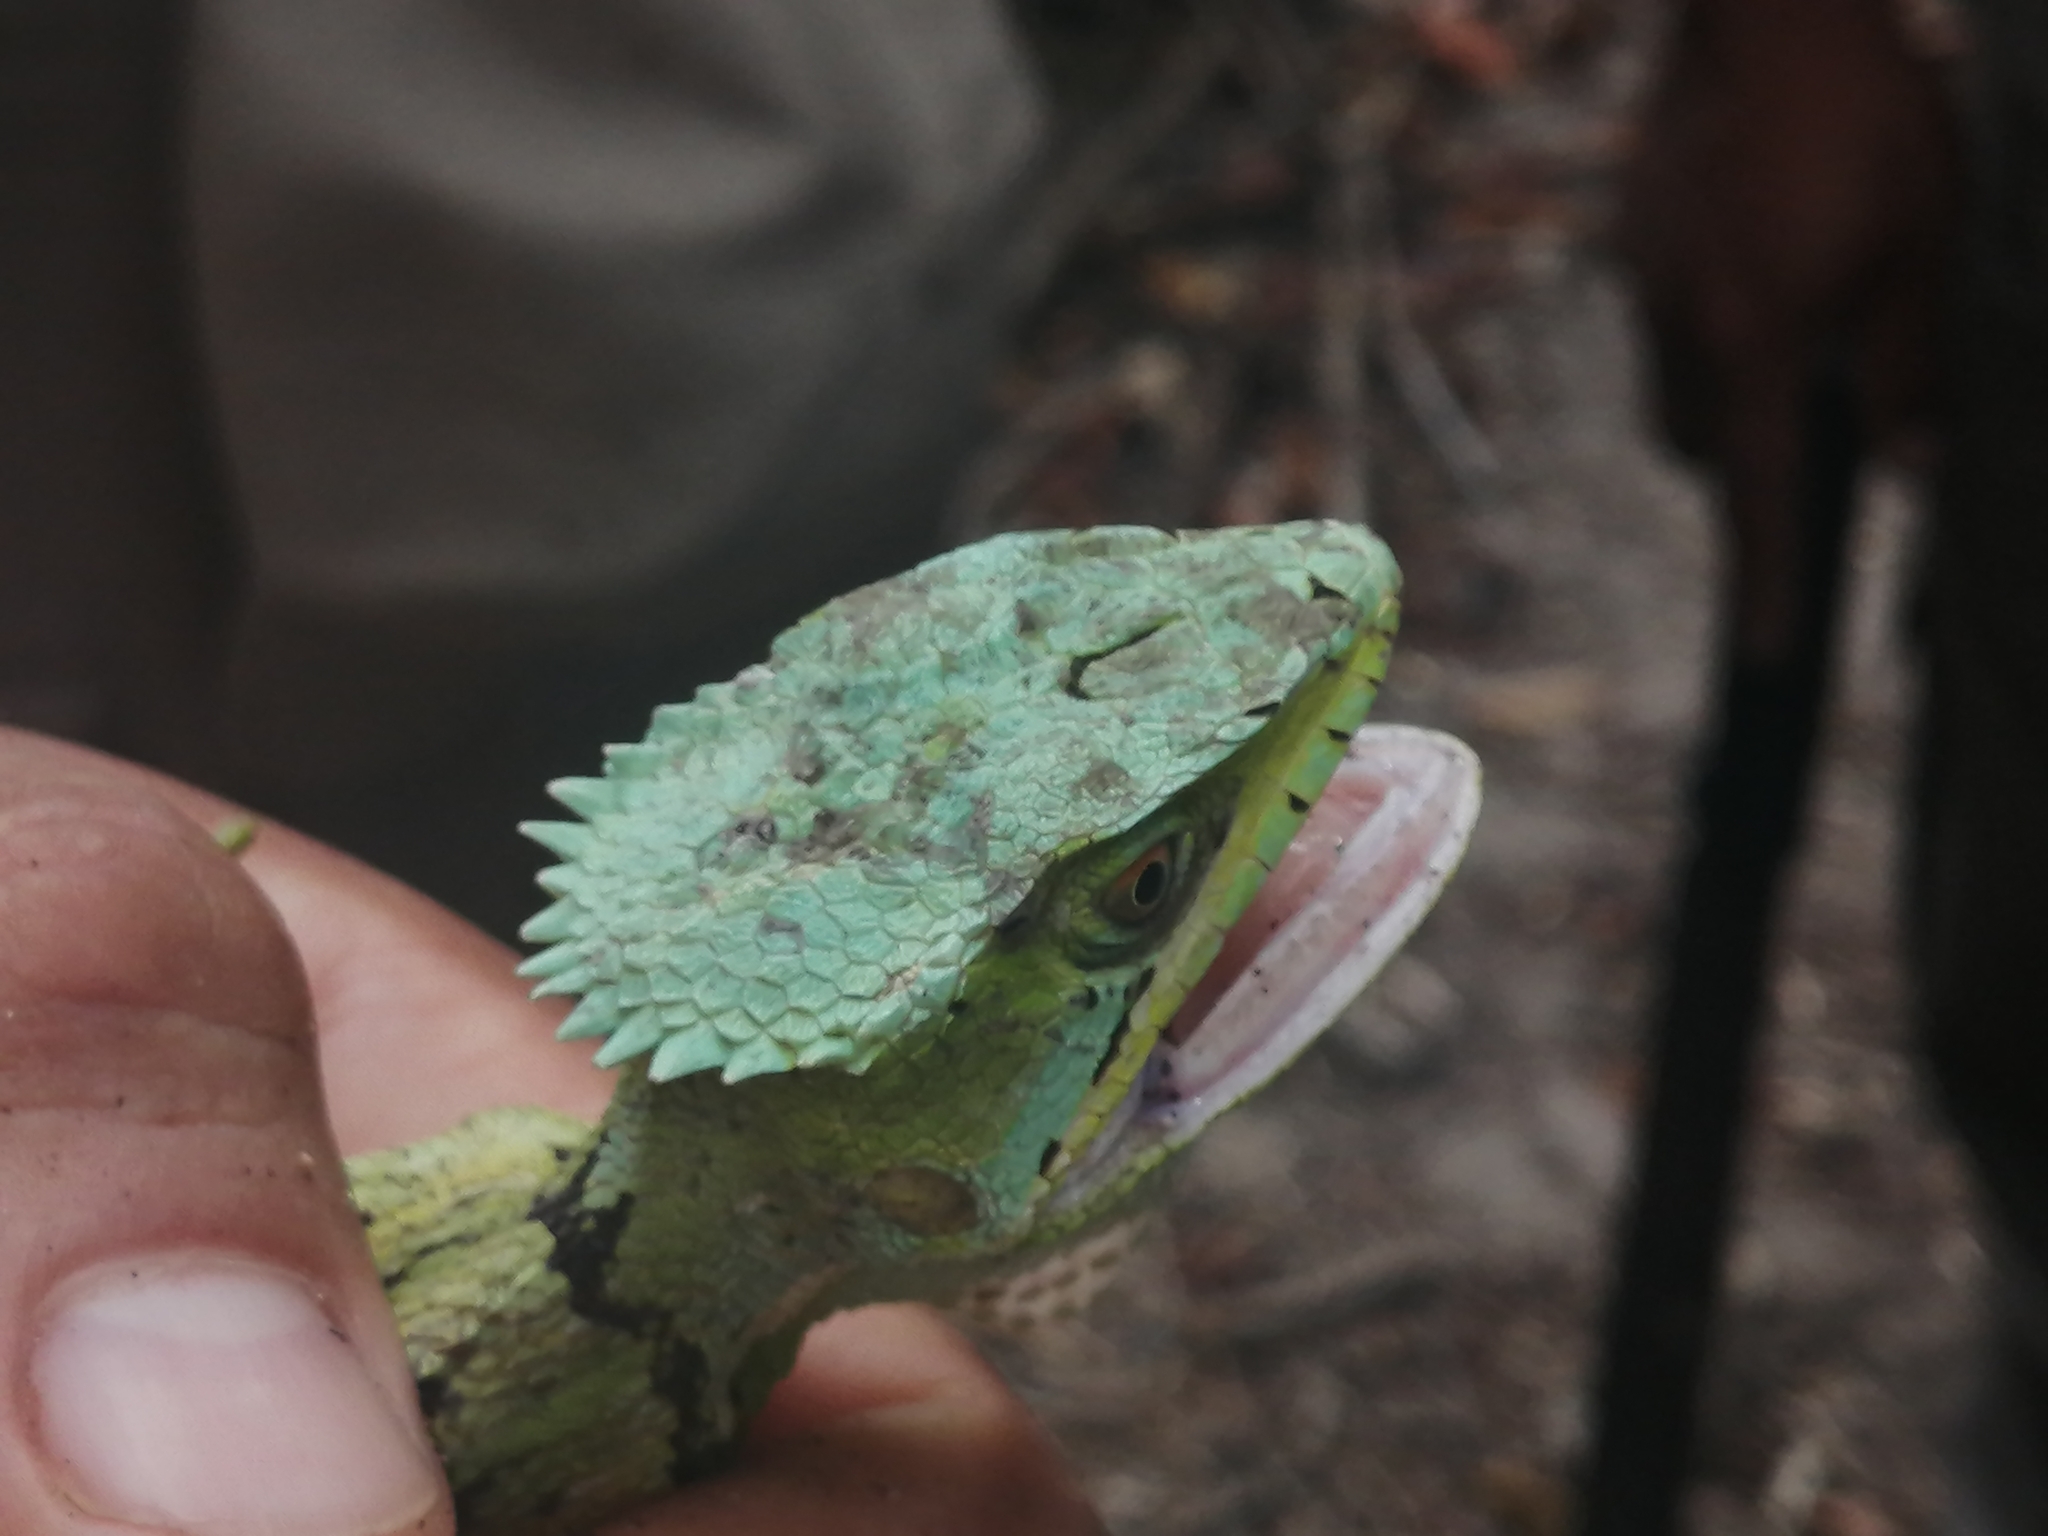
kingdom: Animalia
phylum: Chordata
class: Squamata
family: Corytophanidae
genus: Laemanctus
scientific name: Laemanctus serratus
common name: Serrated casquehead iguana
